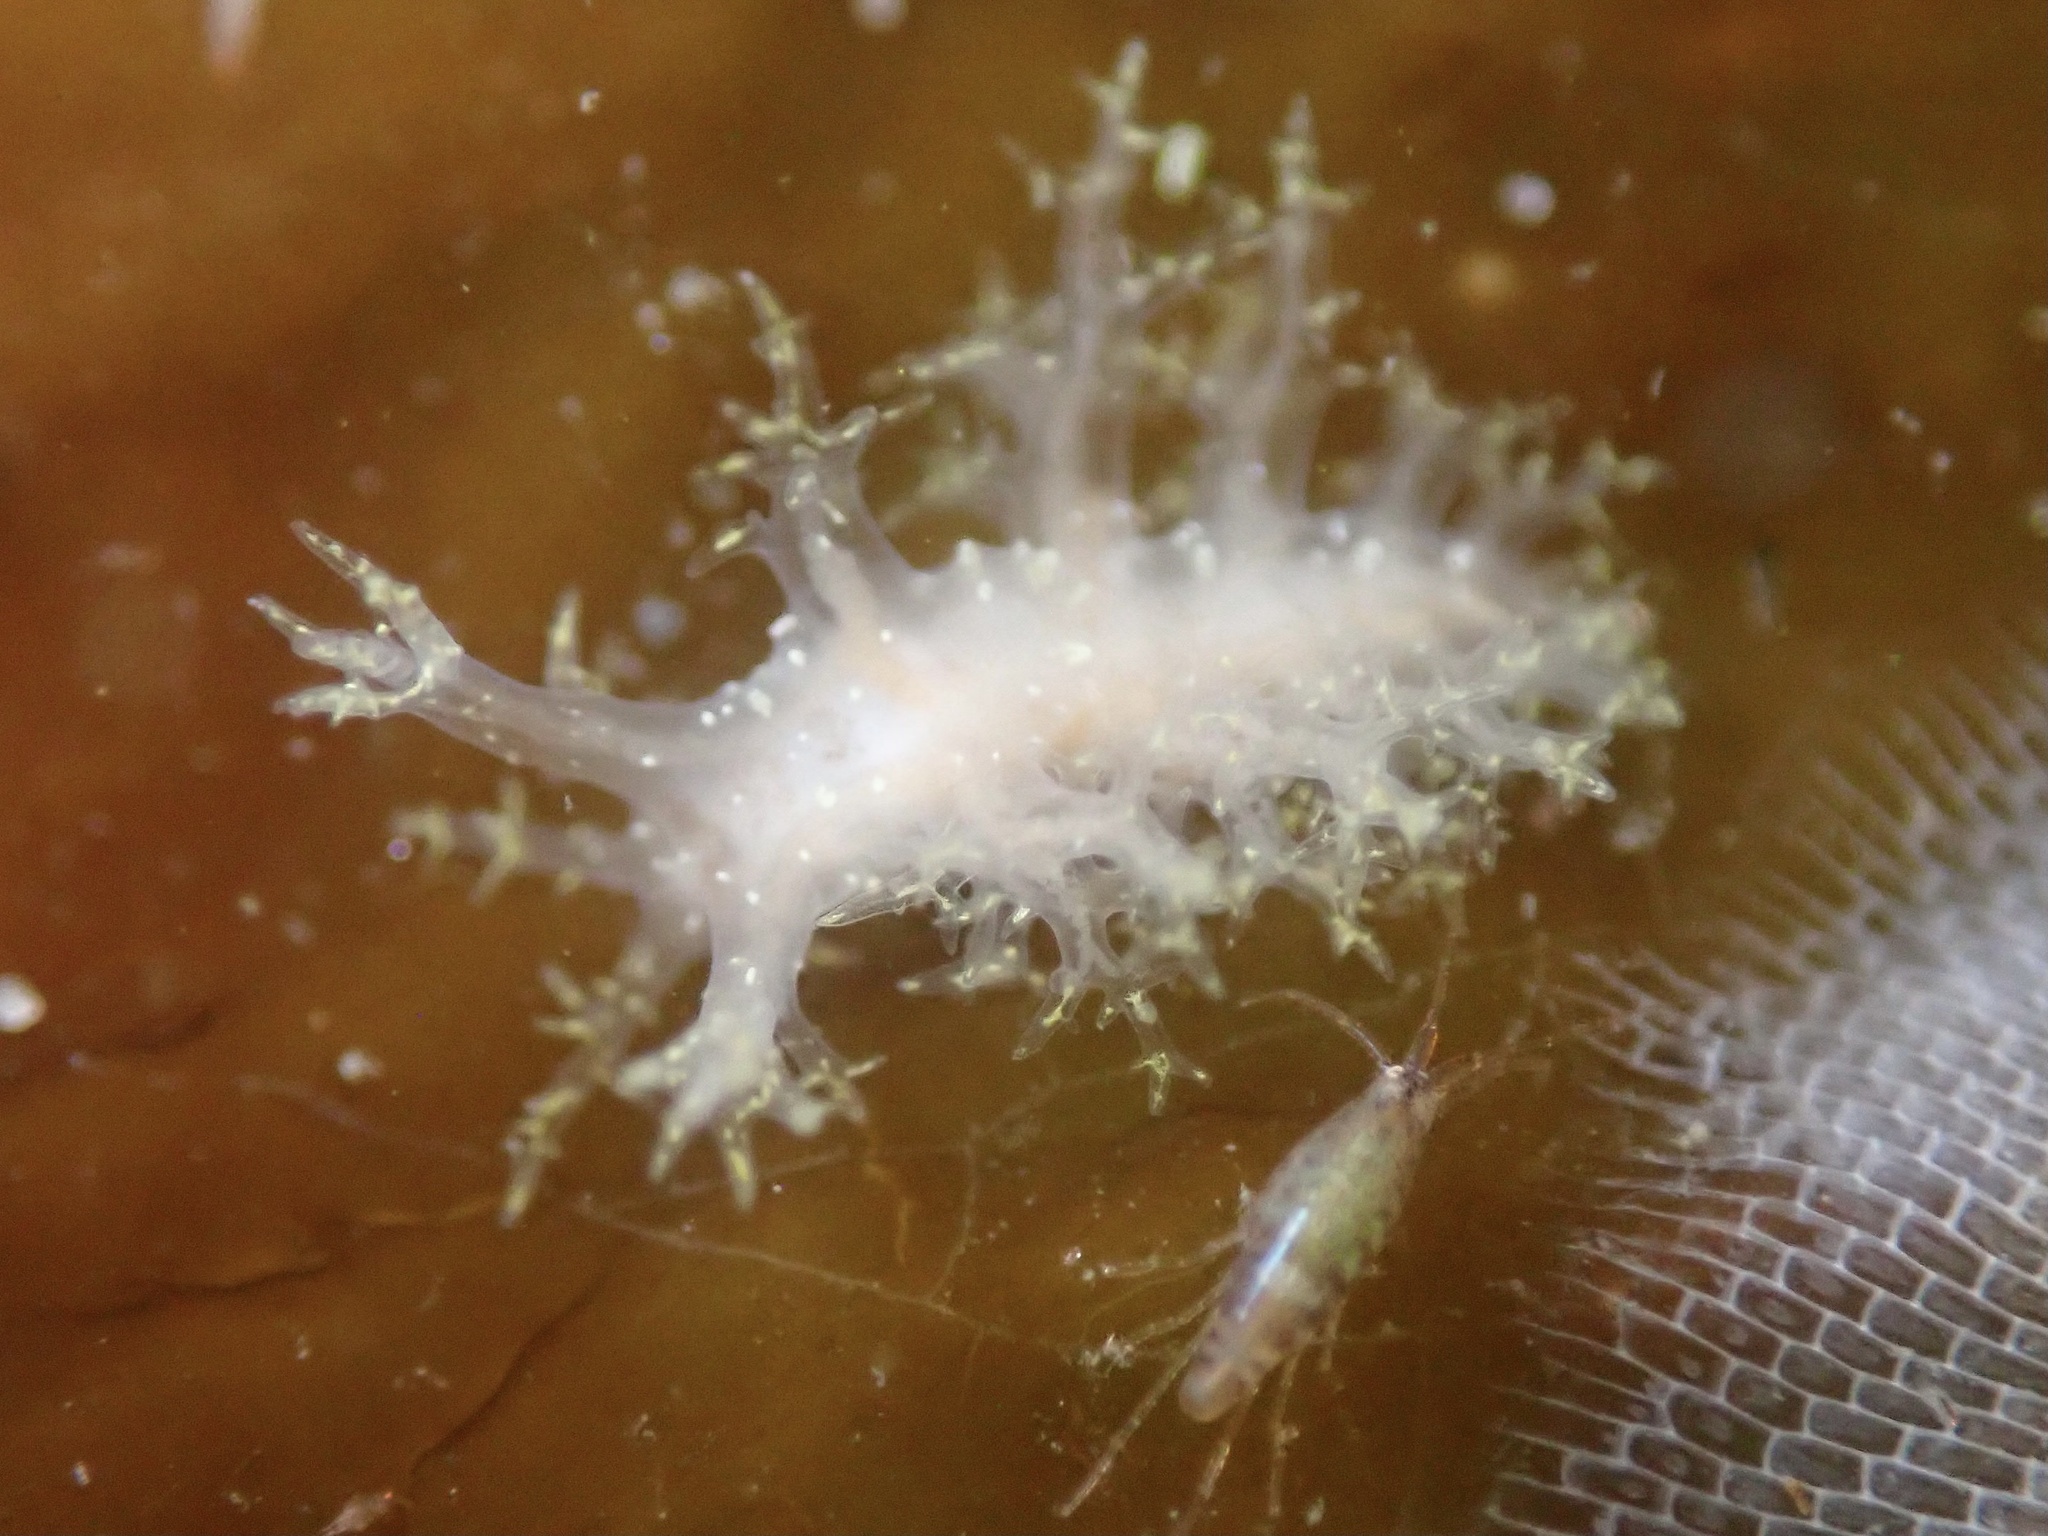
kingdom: Animalia
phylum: Mollusca
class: Gastropoda
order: Nudibranchia
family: Dendronotidae
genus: Dendronotus
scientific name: Dendronotus venustus
